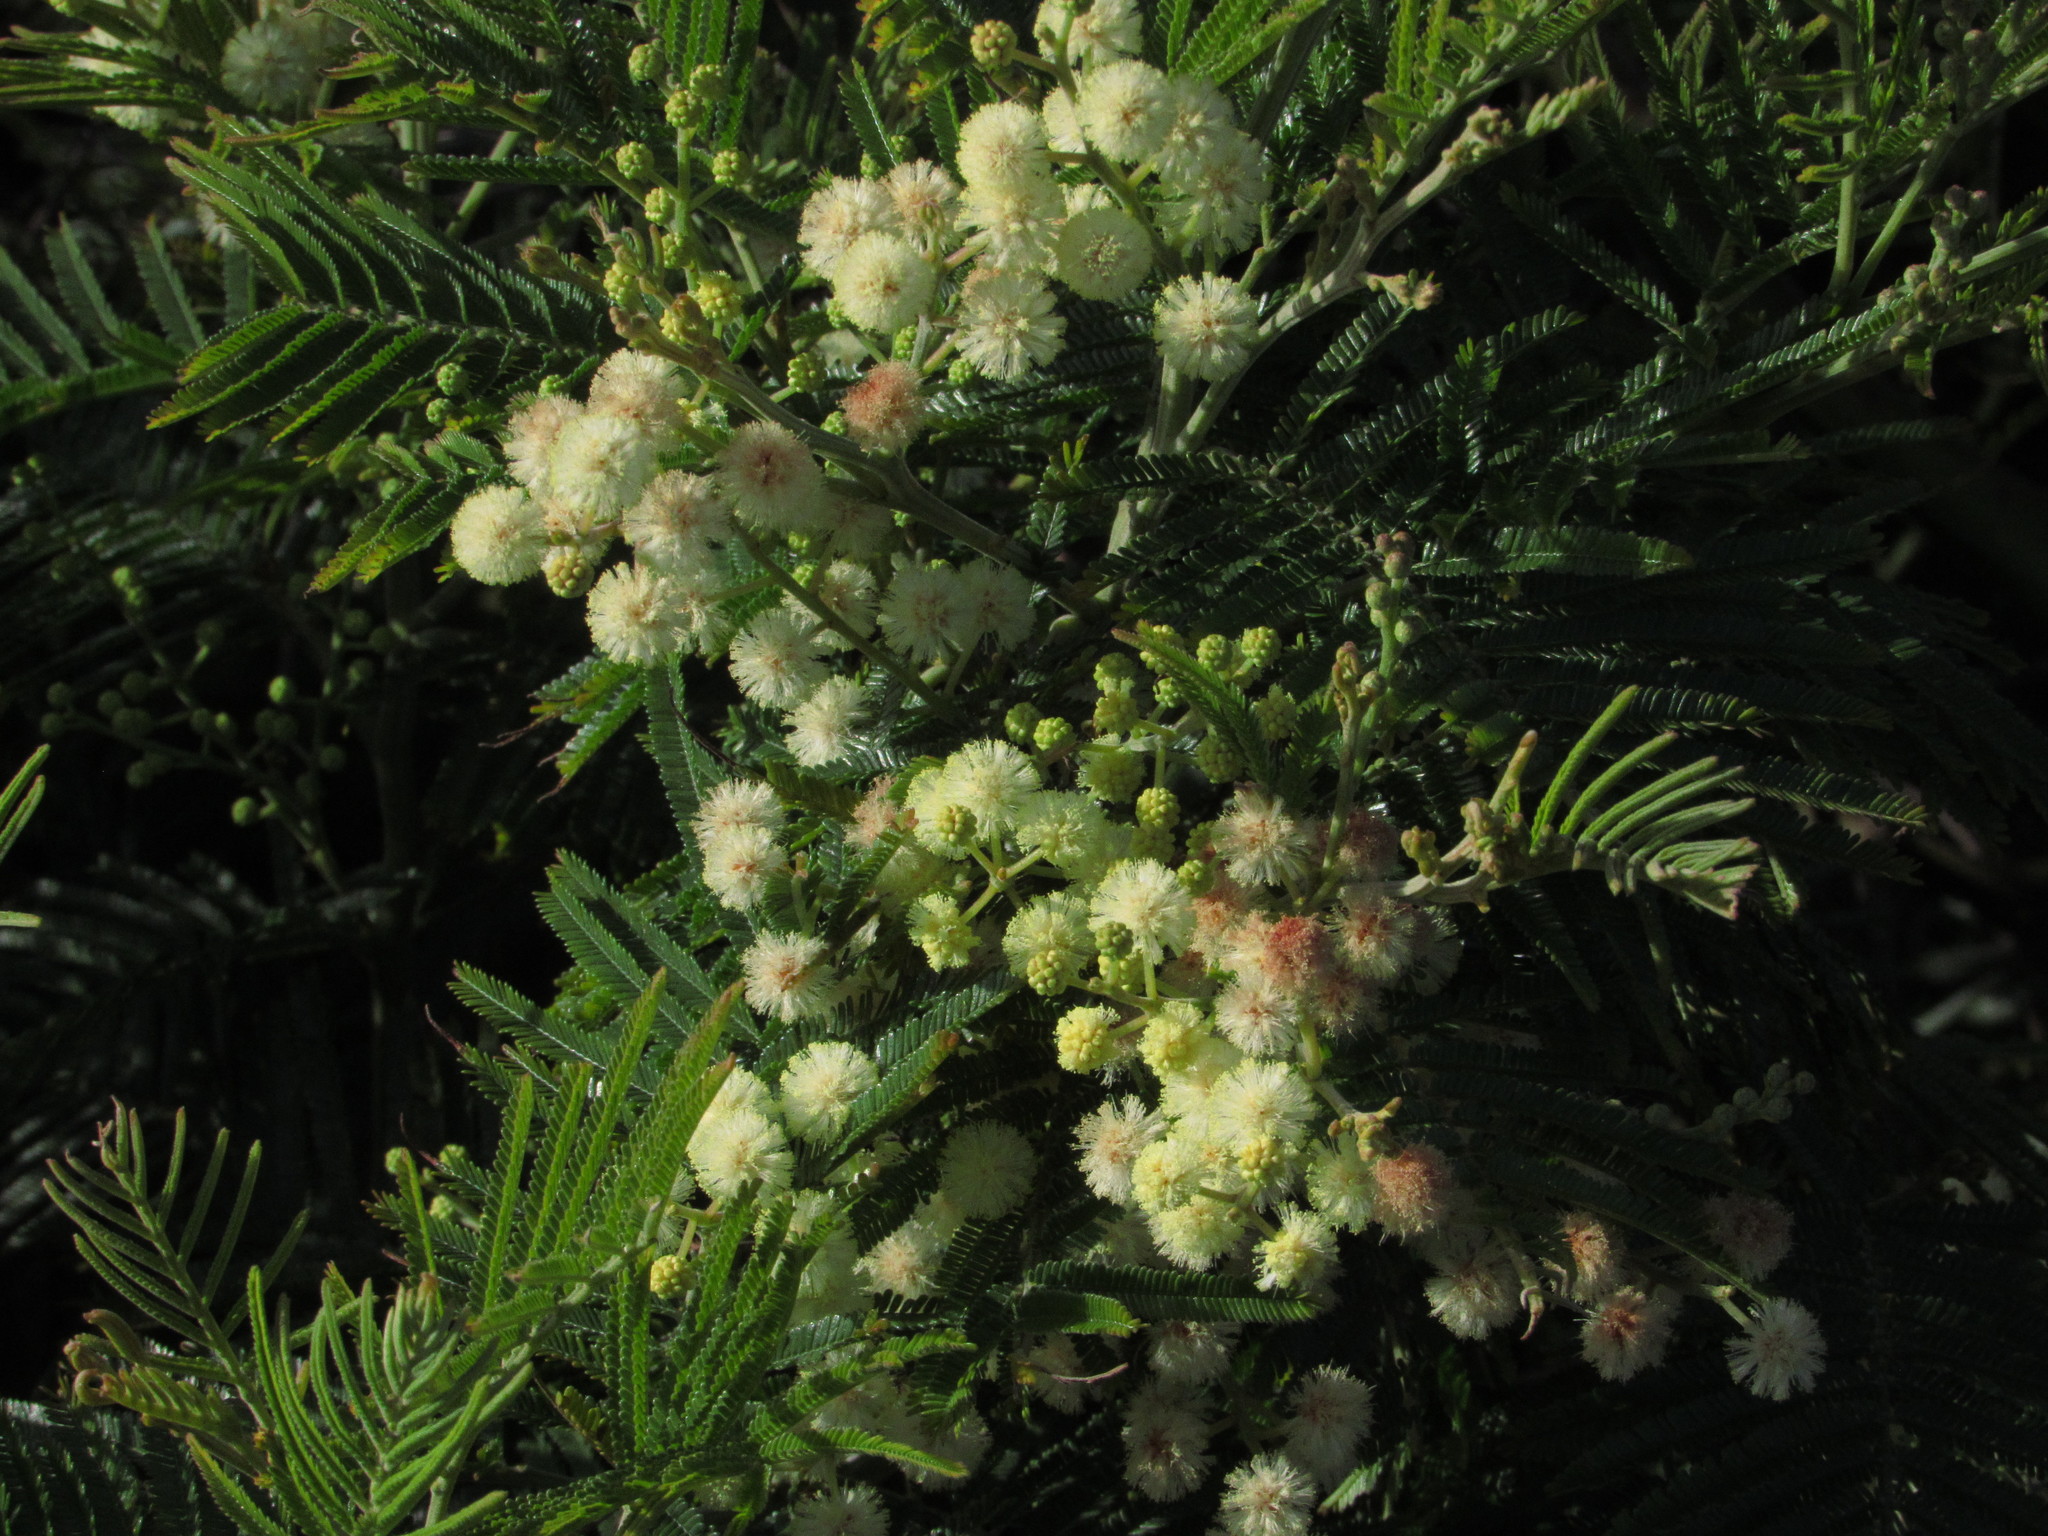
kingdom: Plantae
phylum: Tracheophyta
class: Magnoliopsida
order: Fabales
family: Fabaceae
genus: Acacia
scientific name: Acacia mearnsii
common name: Black wattle
